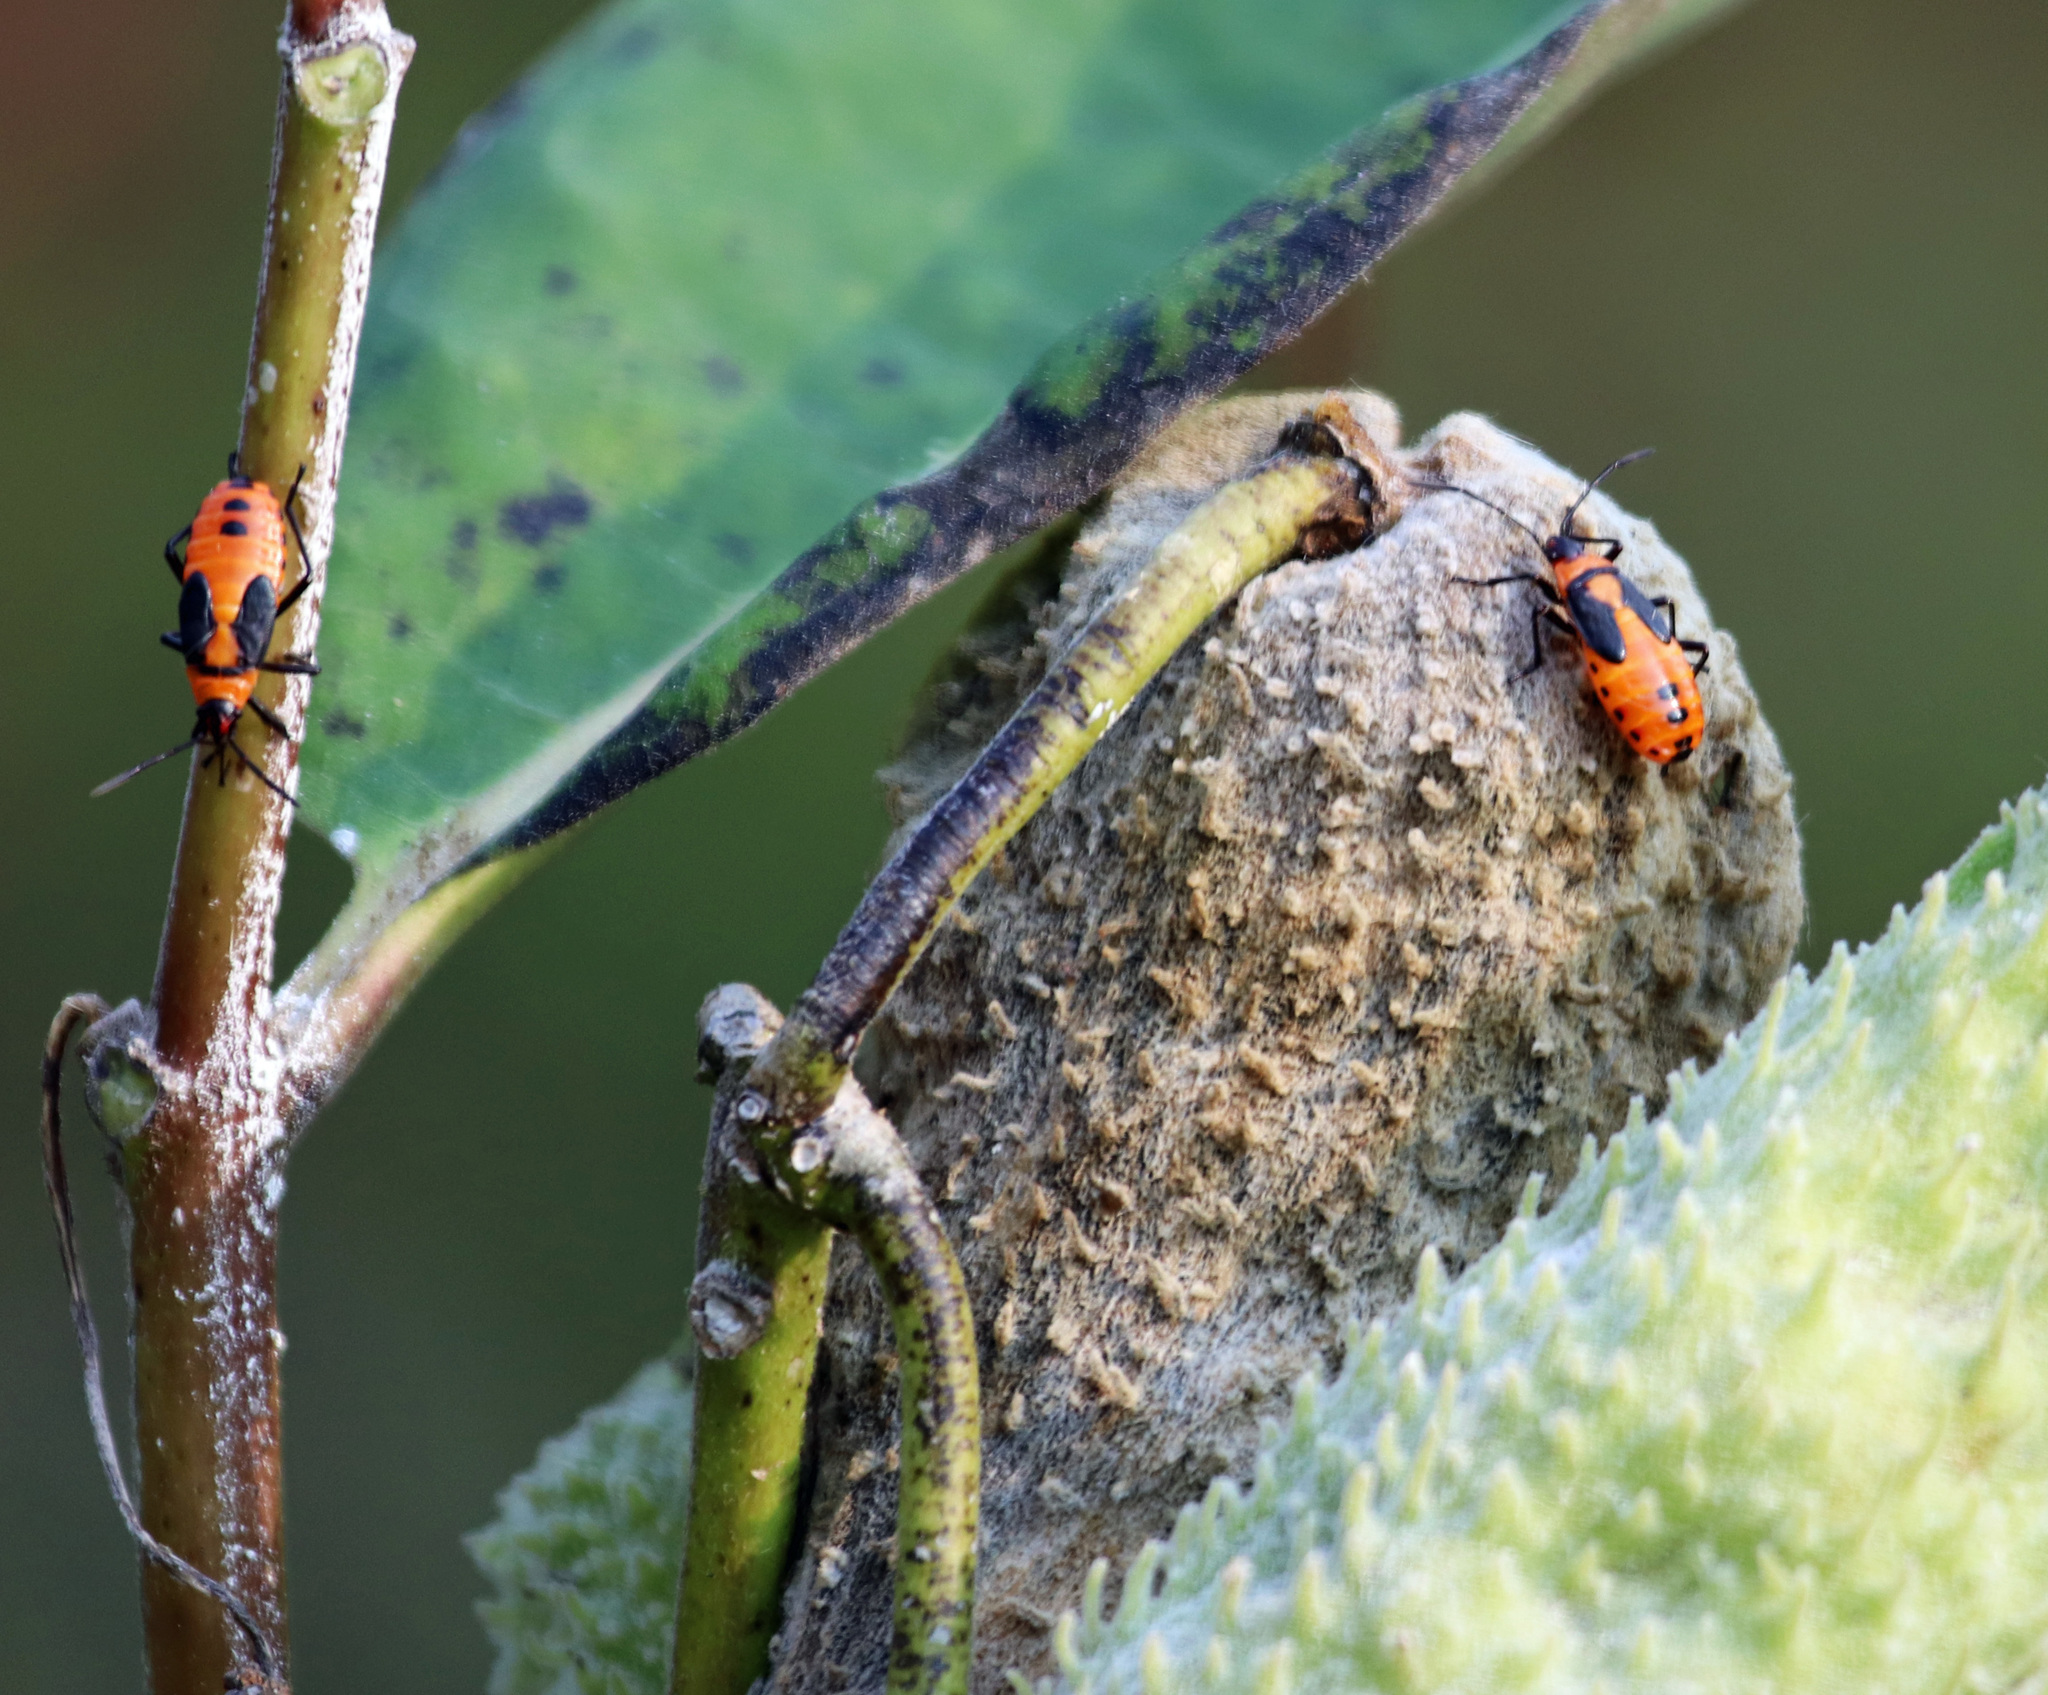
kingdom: Animalia
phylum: Arthropoda
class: Insecta
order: Hemiptera
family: Lygaeidae
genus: Oncopeltus
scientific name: Oncopeltus fasciatus
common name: Large milkweed bug
